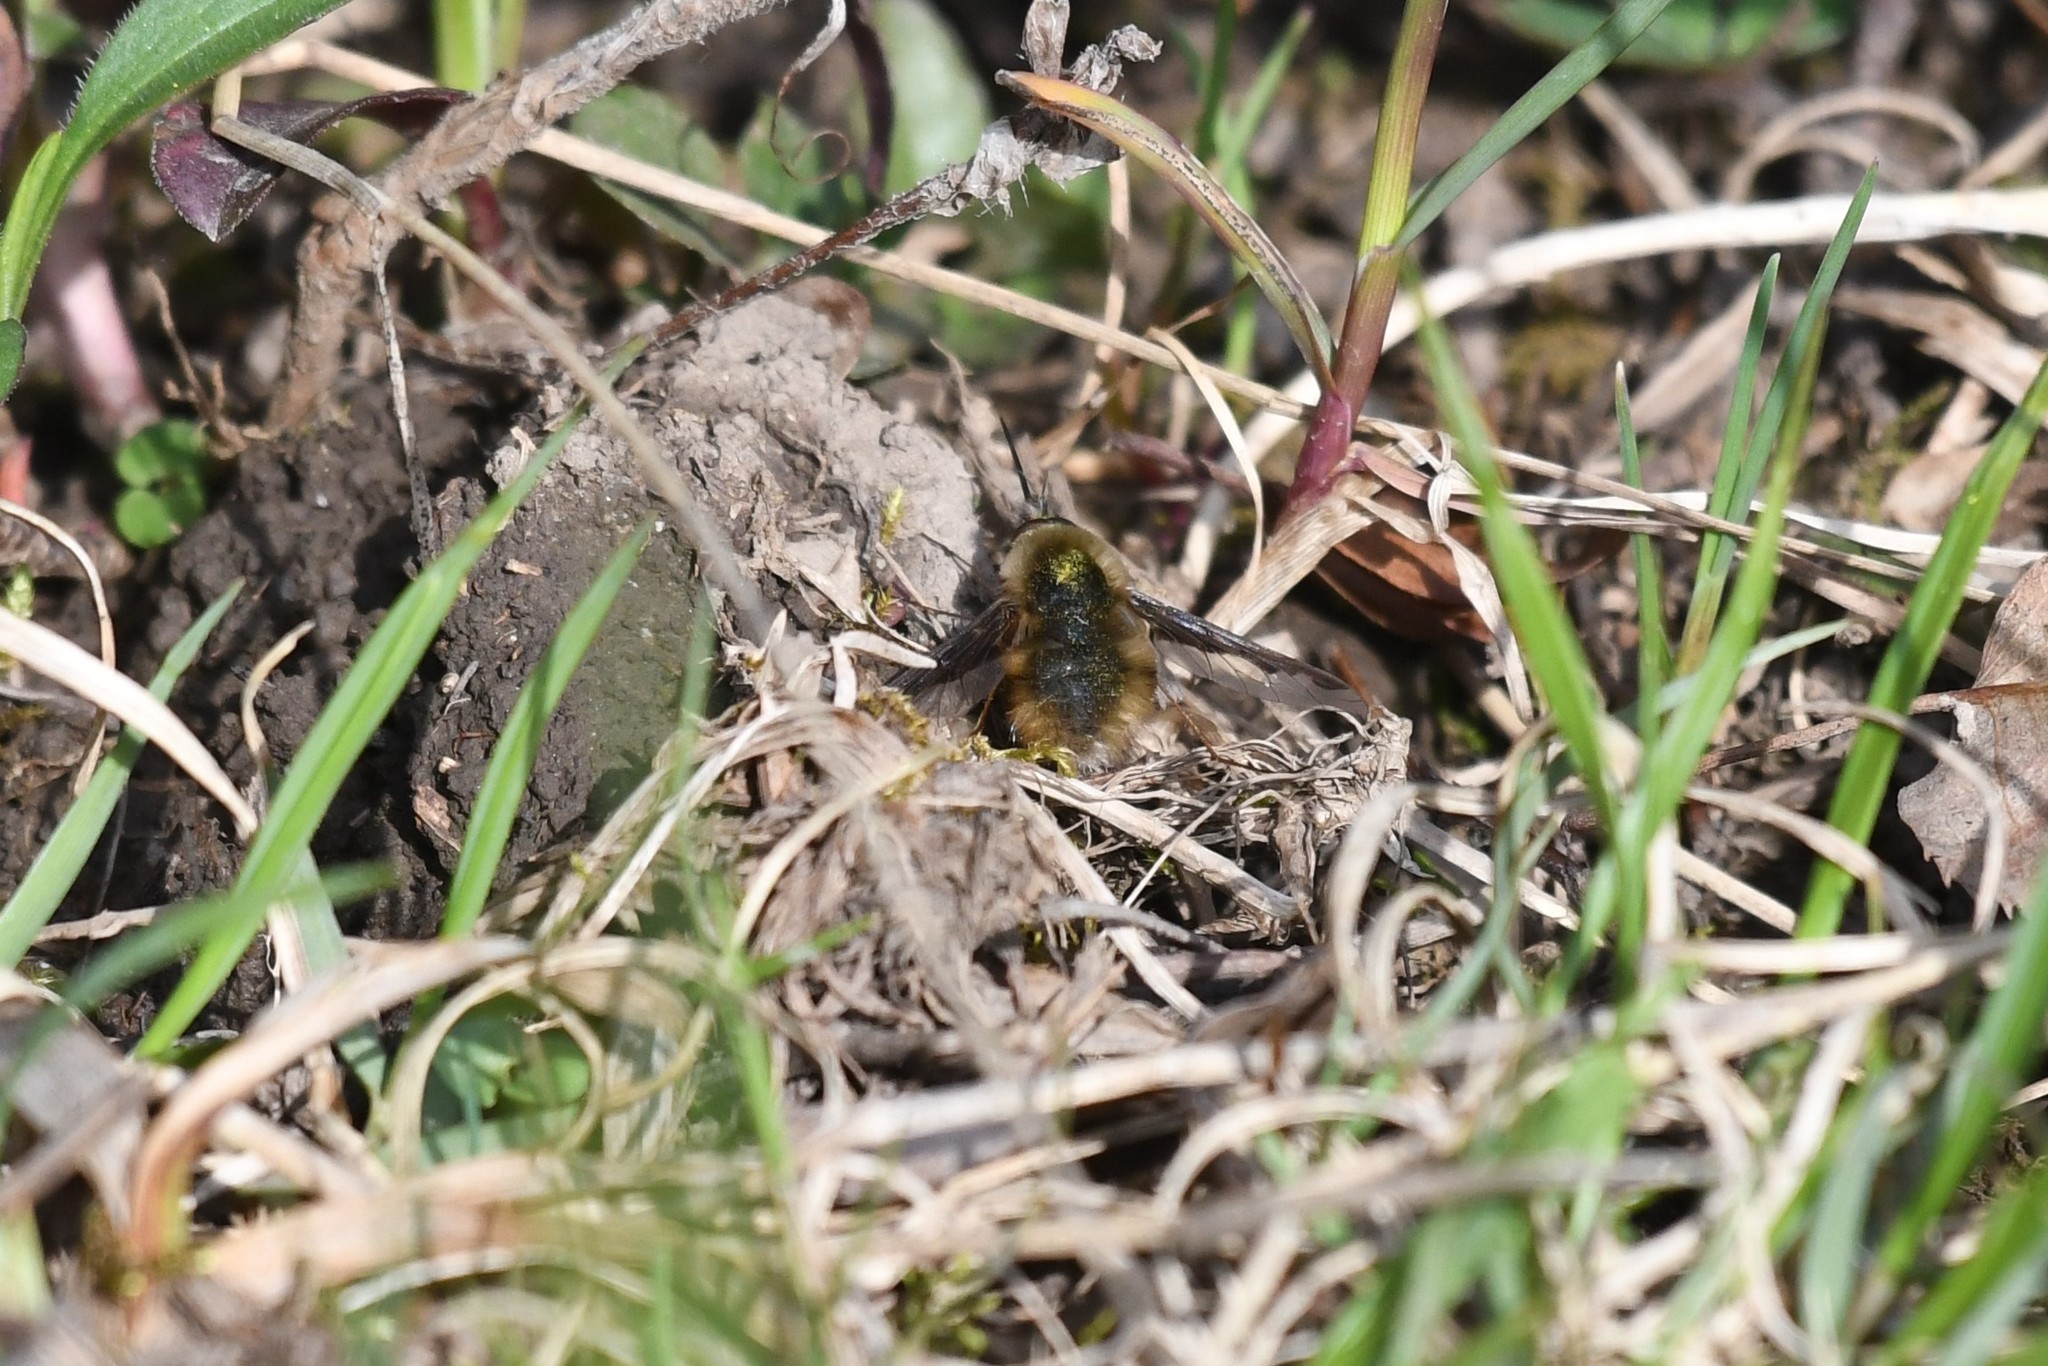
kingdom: Animalia
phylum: Arthropoda
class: Insecta
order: Diptera
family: Bombyliidae
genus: Bombylius
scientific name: Bombylius major
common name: Bee fly
